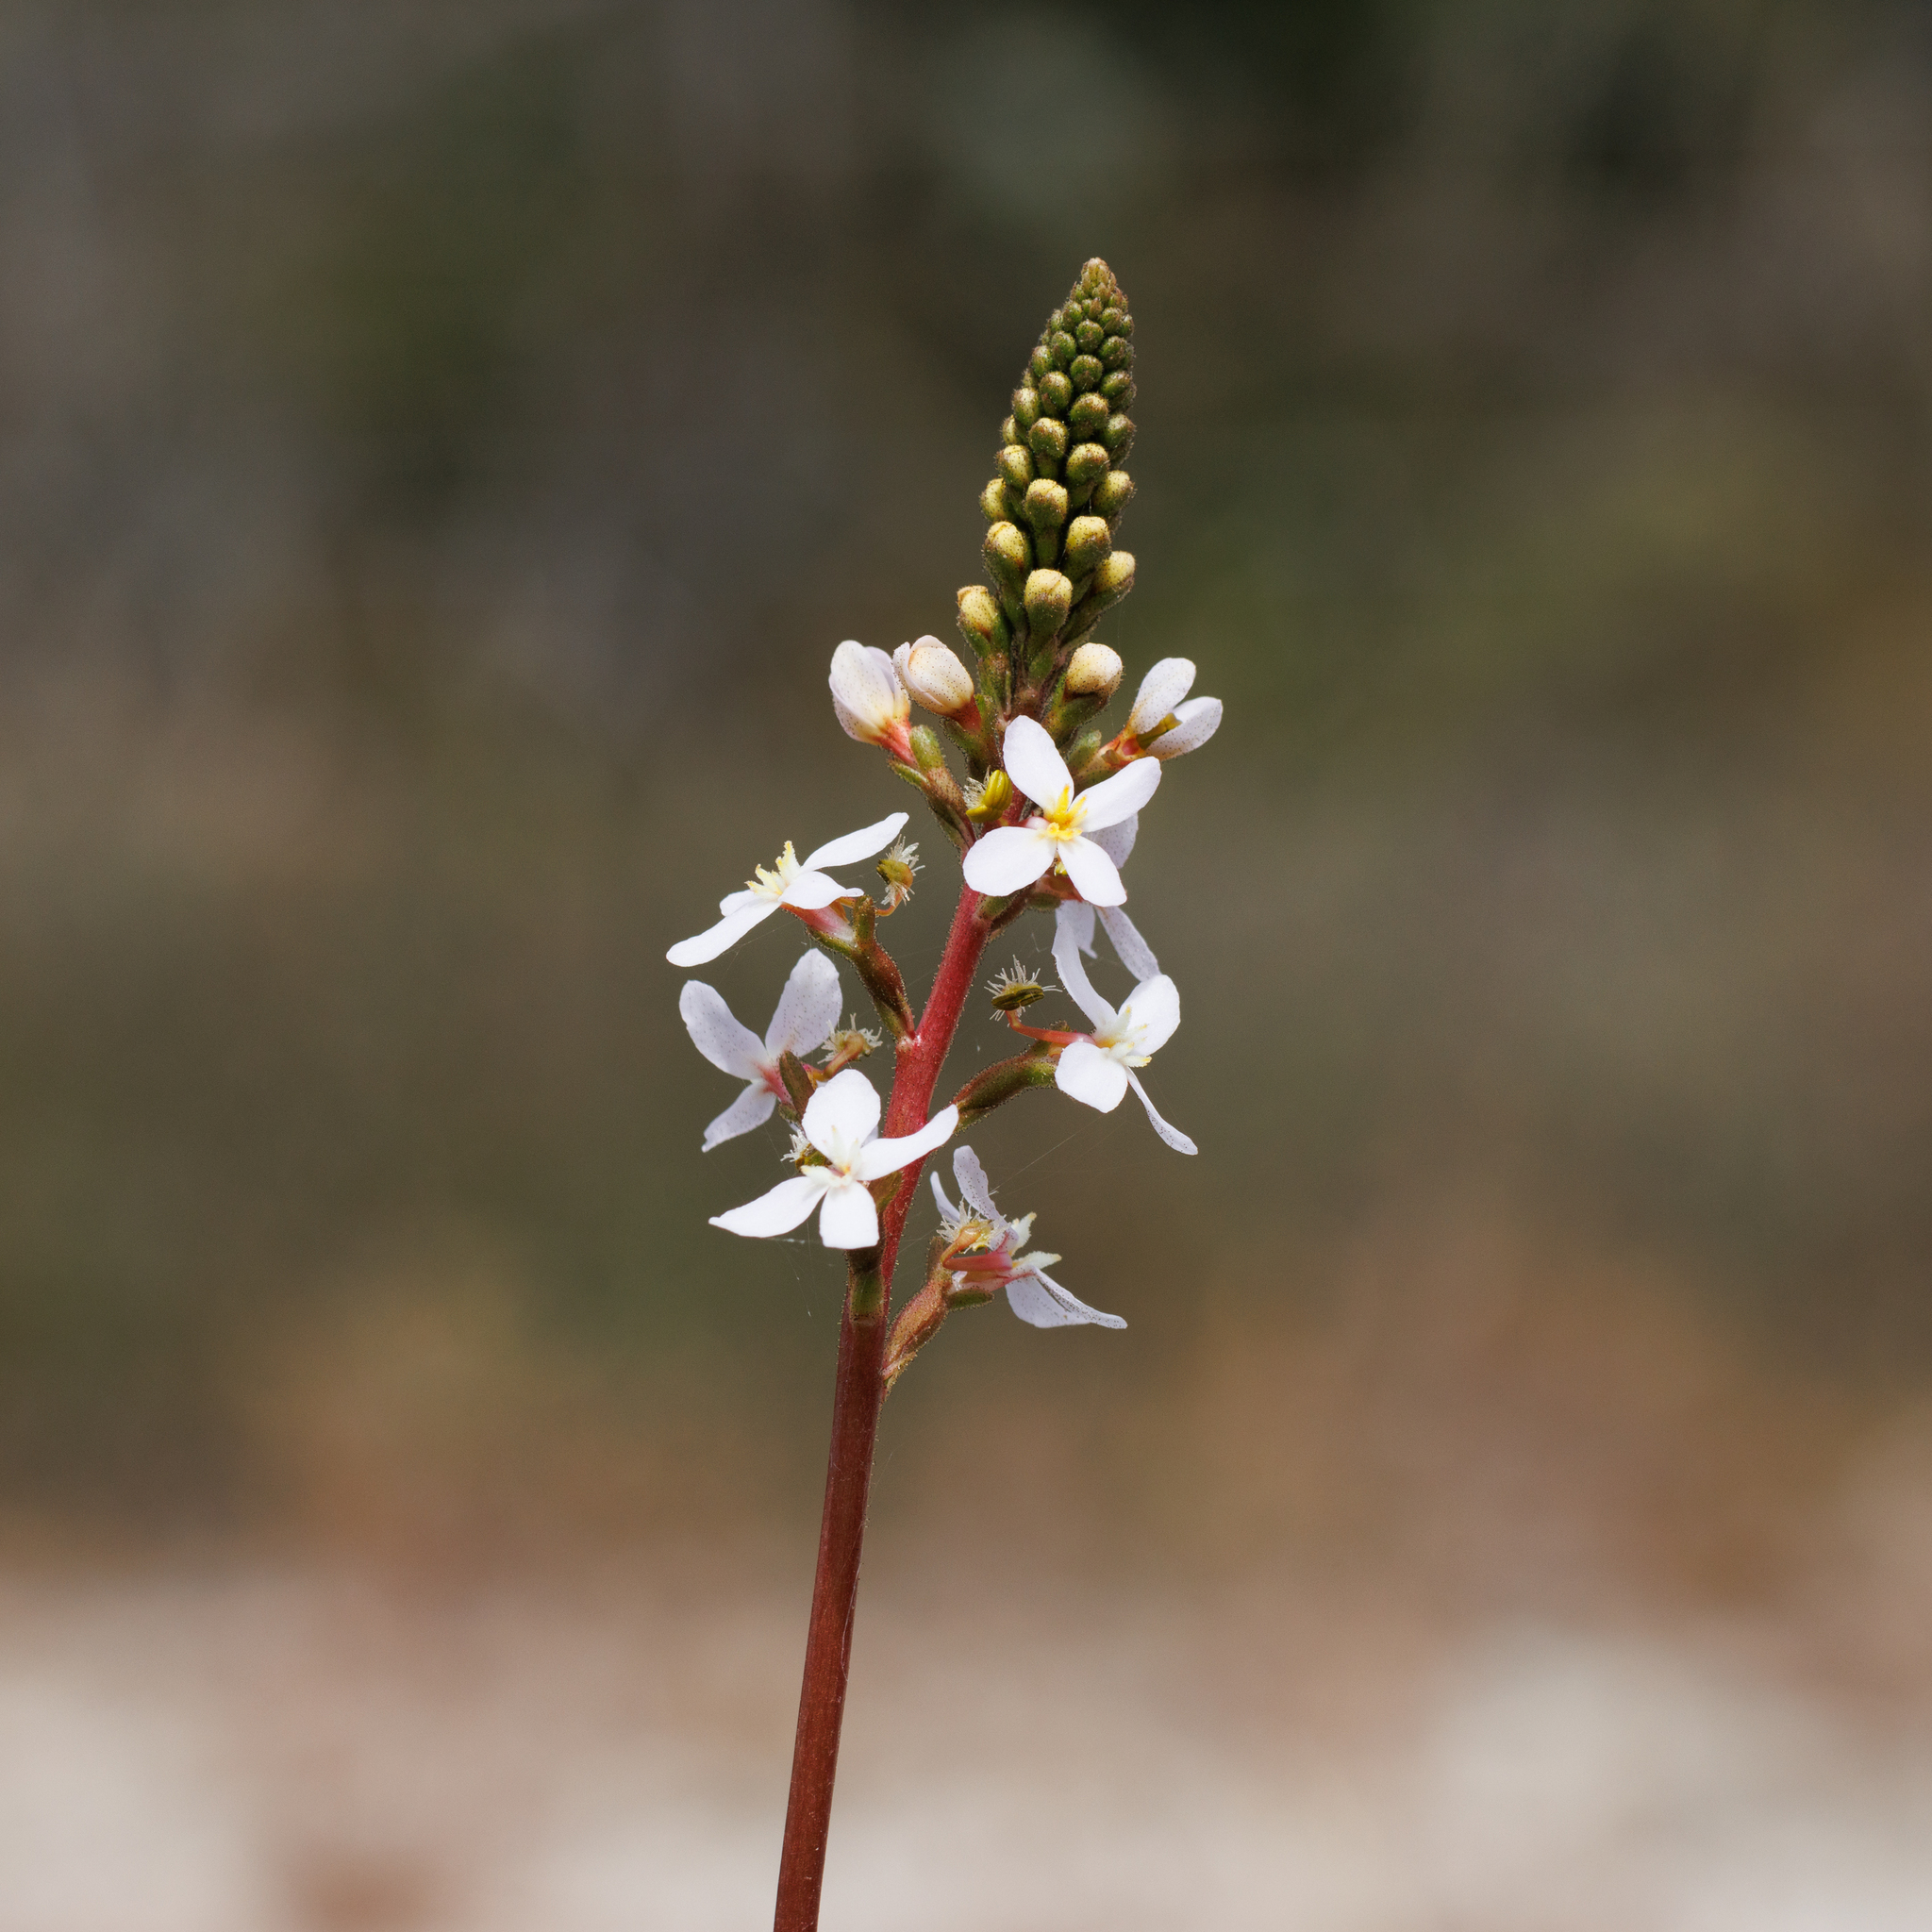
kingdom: Plantae
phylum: Tracheophyta
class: Magnoliopsida
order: Asterales
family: Stylidiaceae
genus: Stylidium
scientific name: Stylidium armeria
